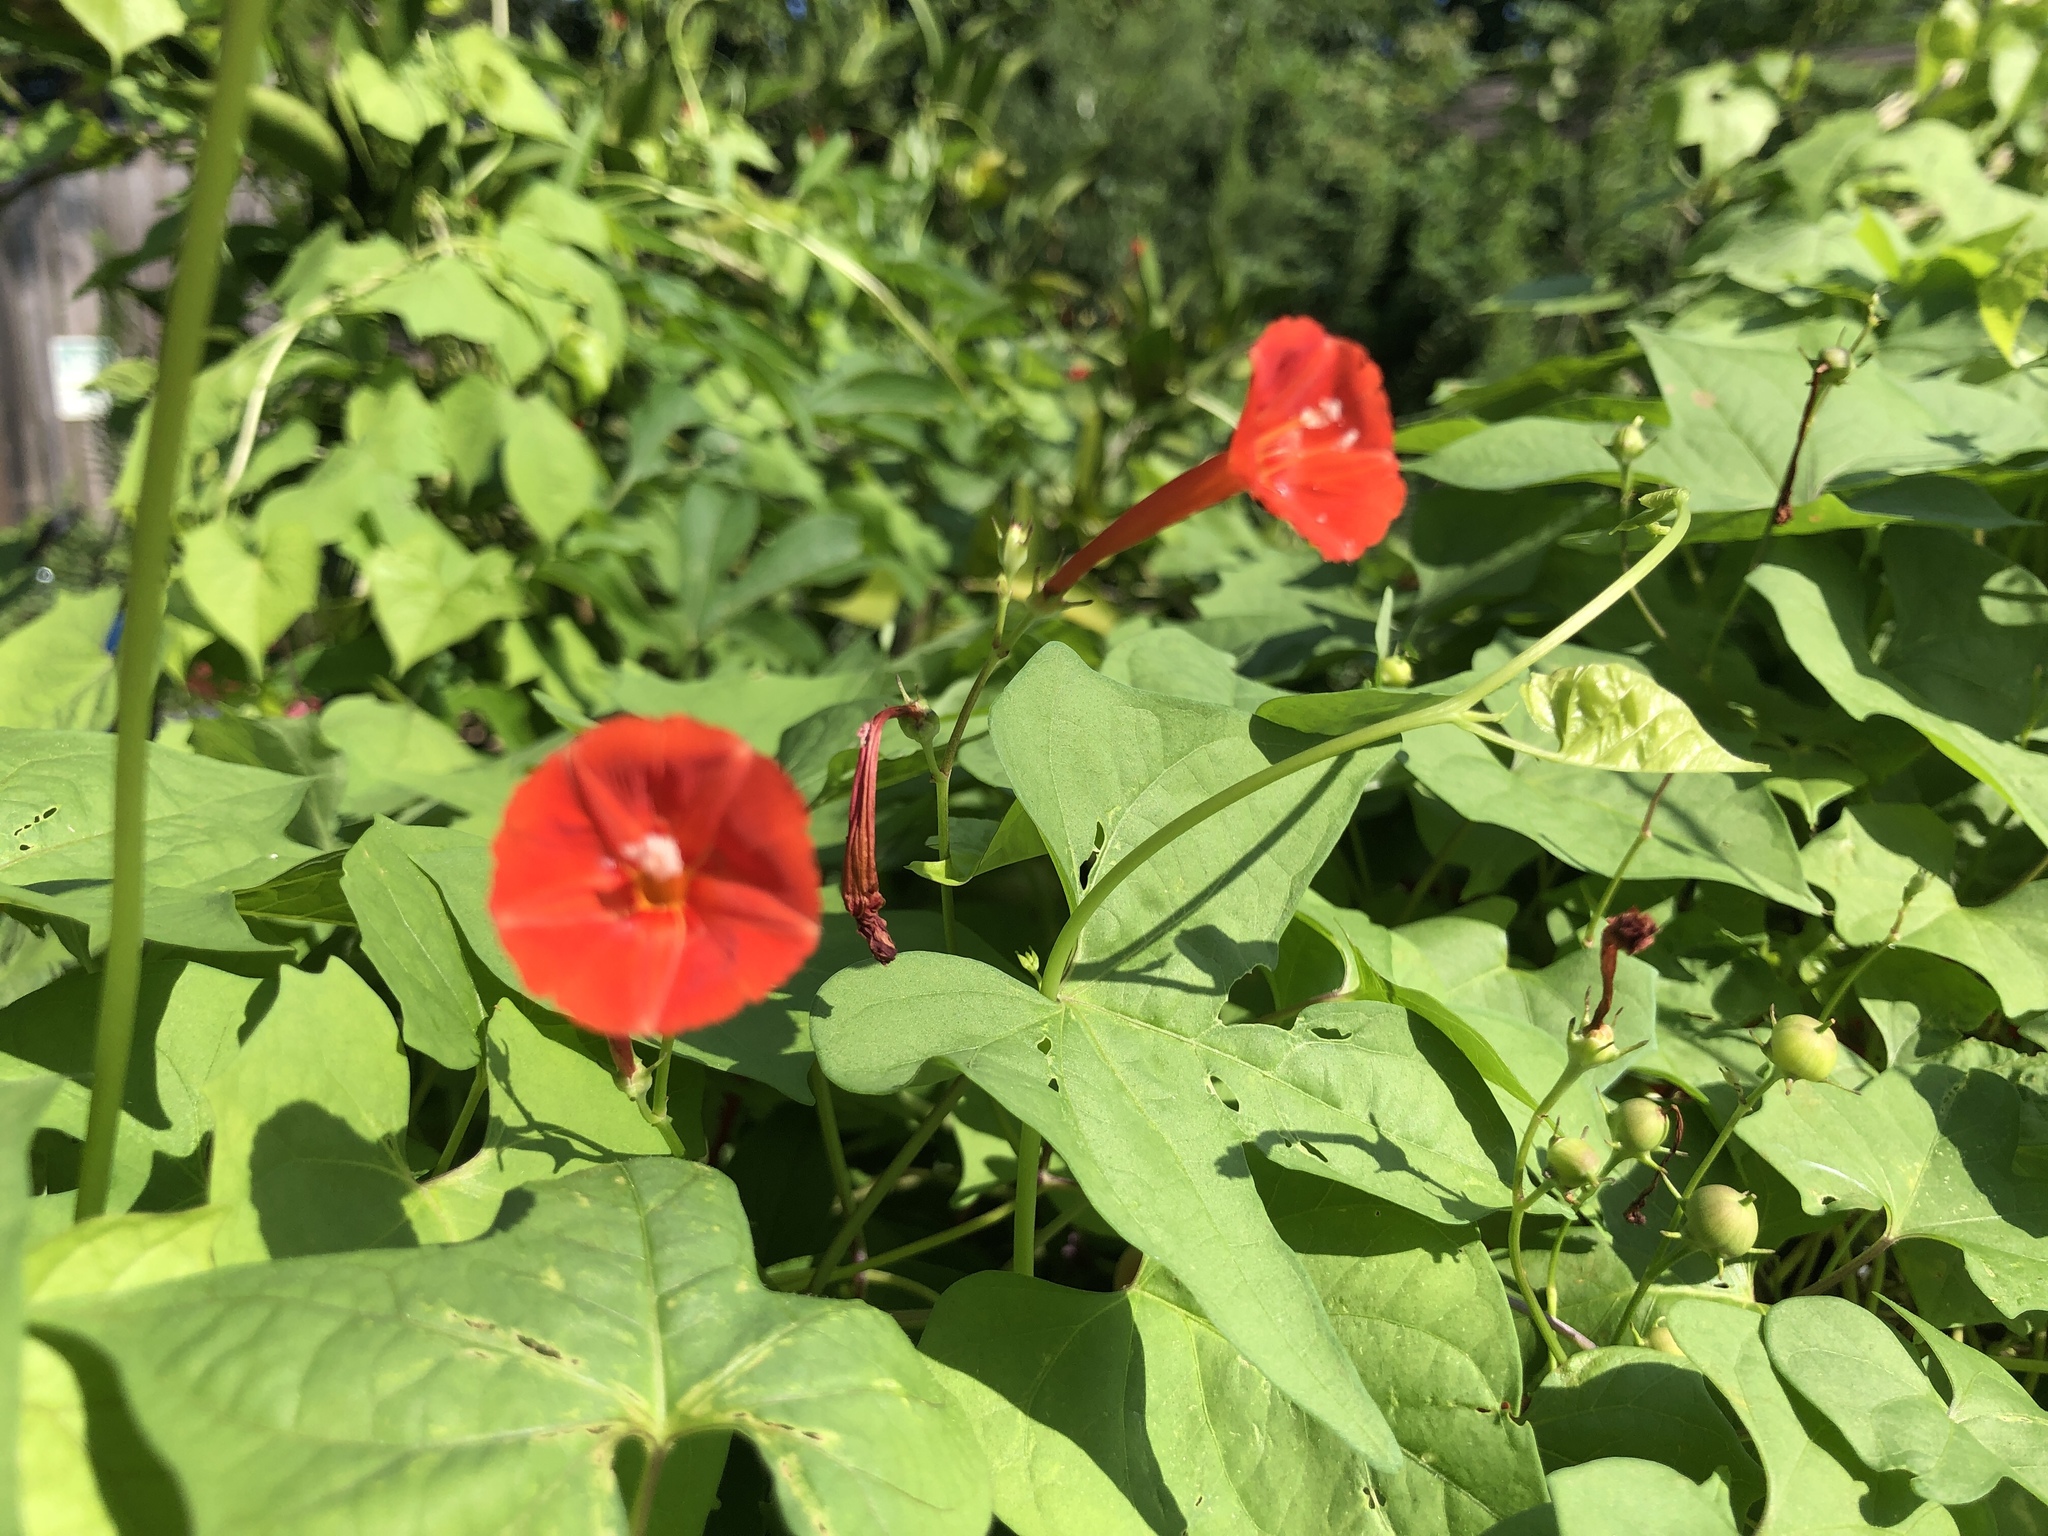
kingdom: Plantae
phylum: Tracheophyta
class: Magnoliopsida
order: Solanales
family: Convolvulaceae
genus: Ipomoea
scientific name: Ipomoea hederifolia
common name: Ivy-leaf morning-glory
